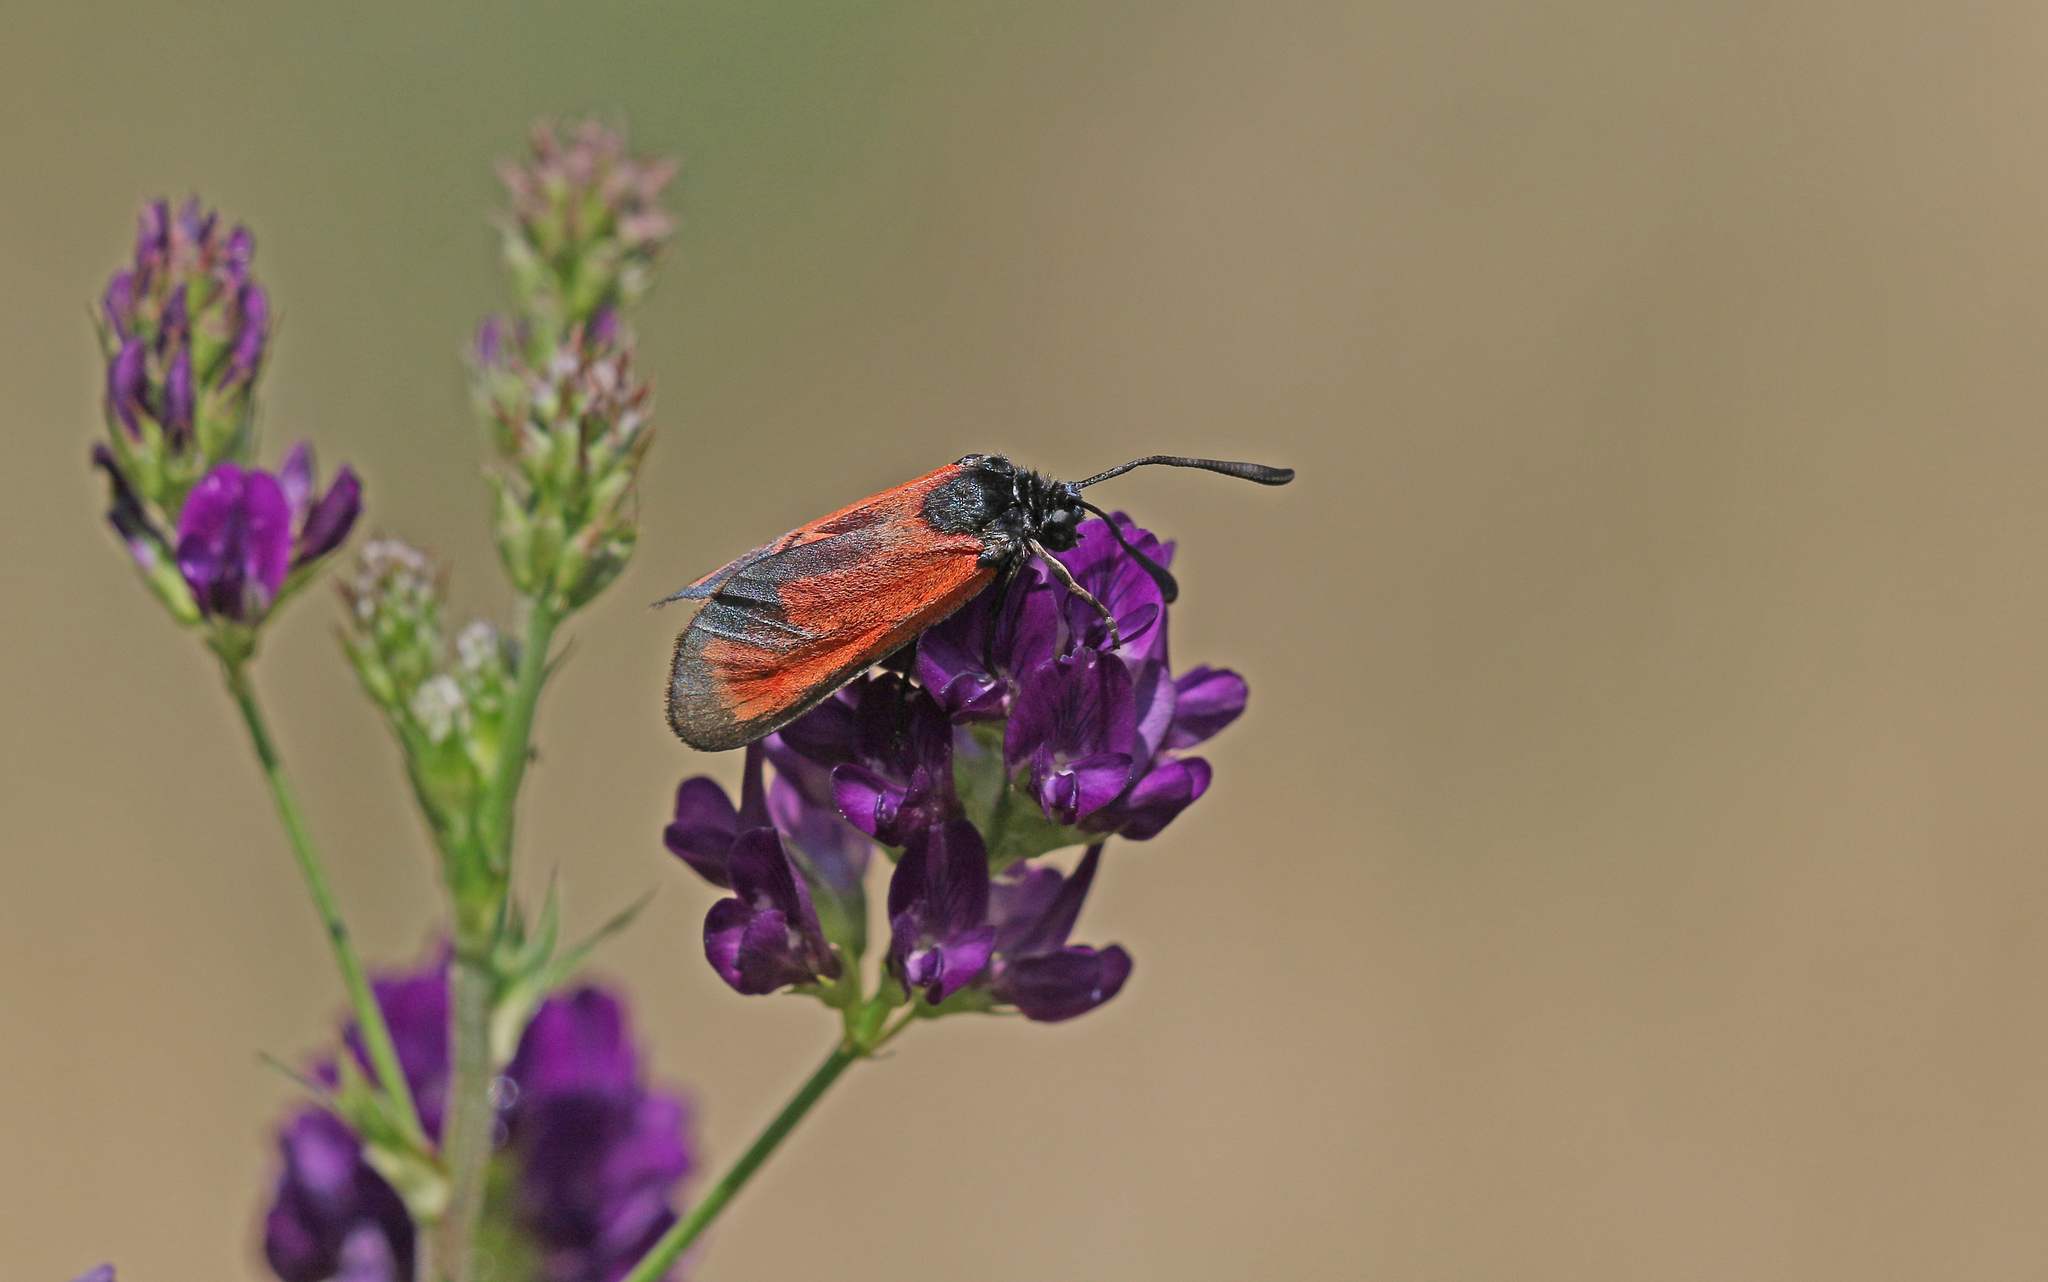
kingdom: Animalia
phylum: Arthropoda
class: Insecta
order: Lepidoptera
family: Zygaenidae
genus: Zygaena
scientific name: Zygaena erythrus
